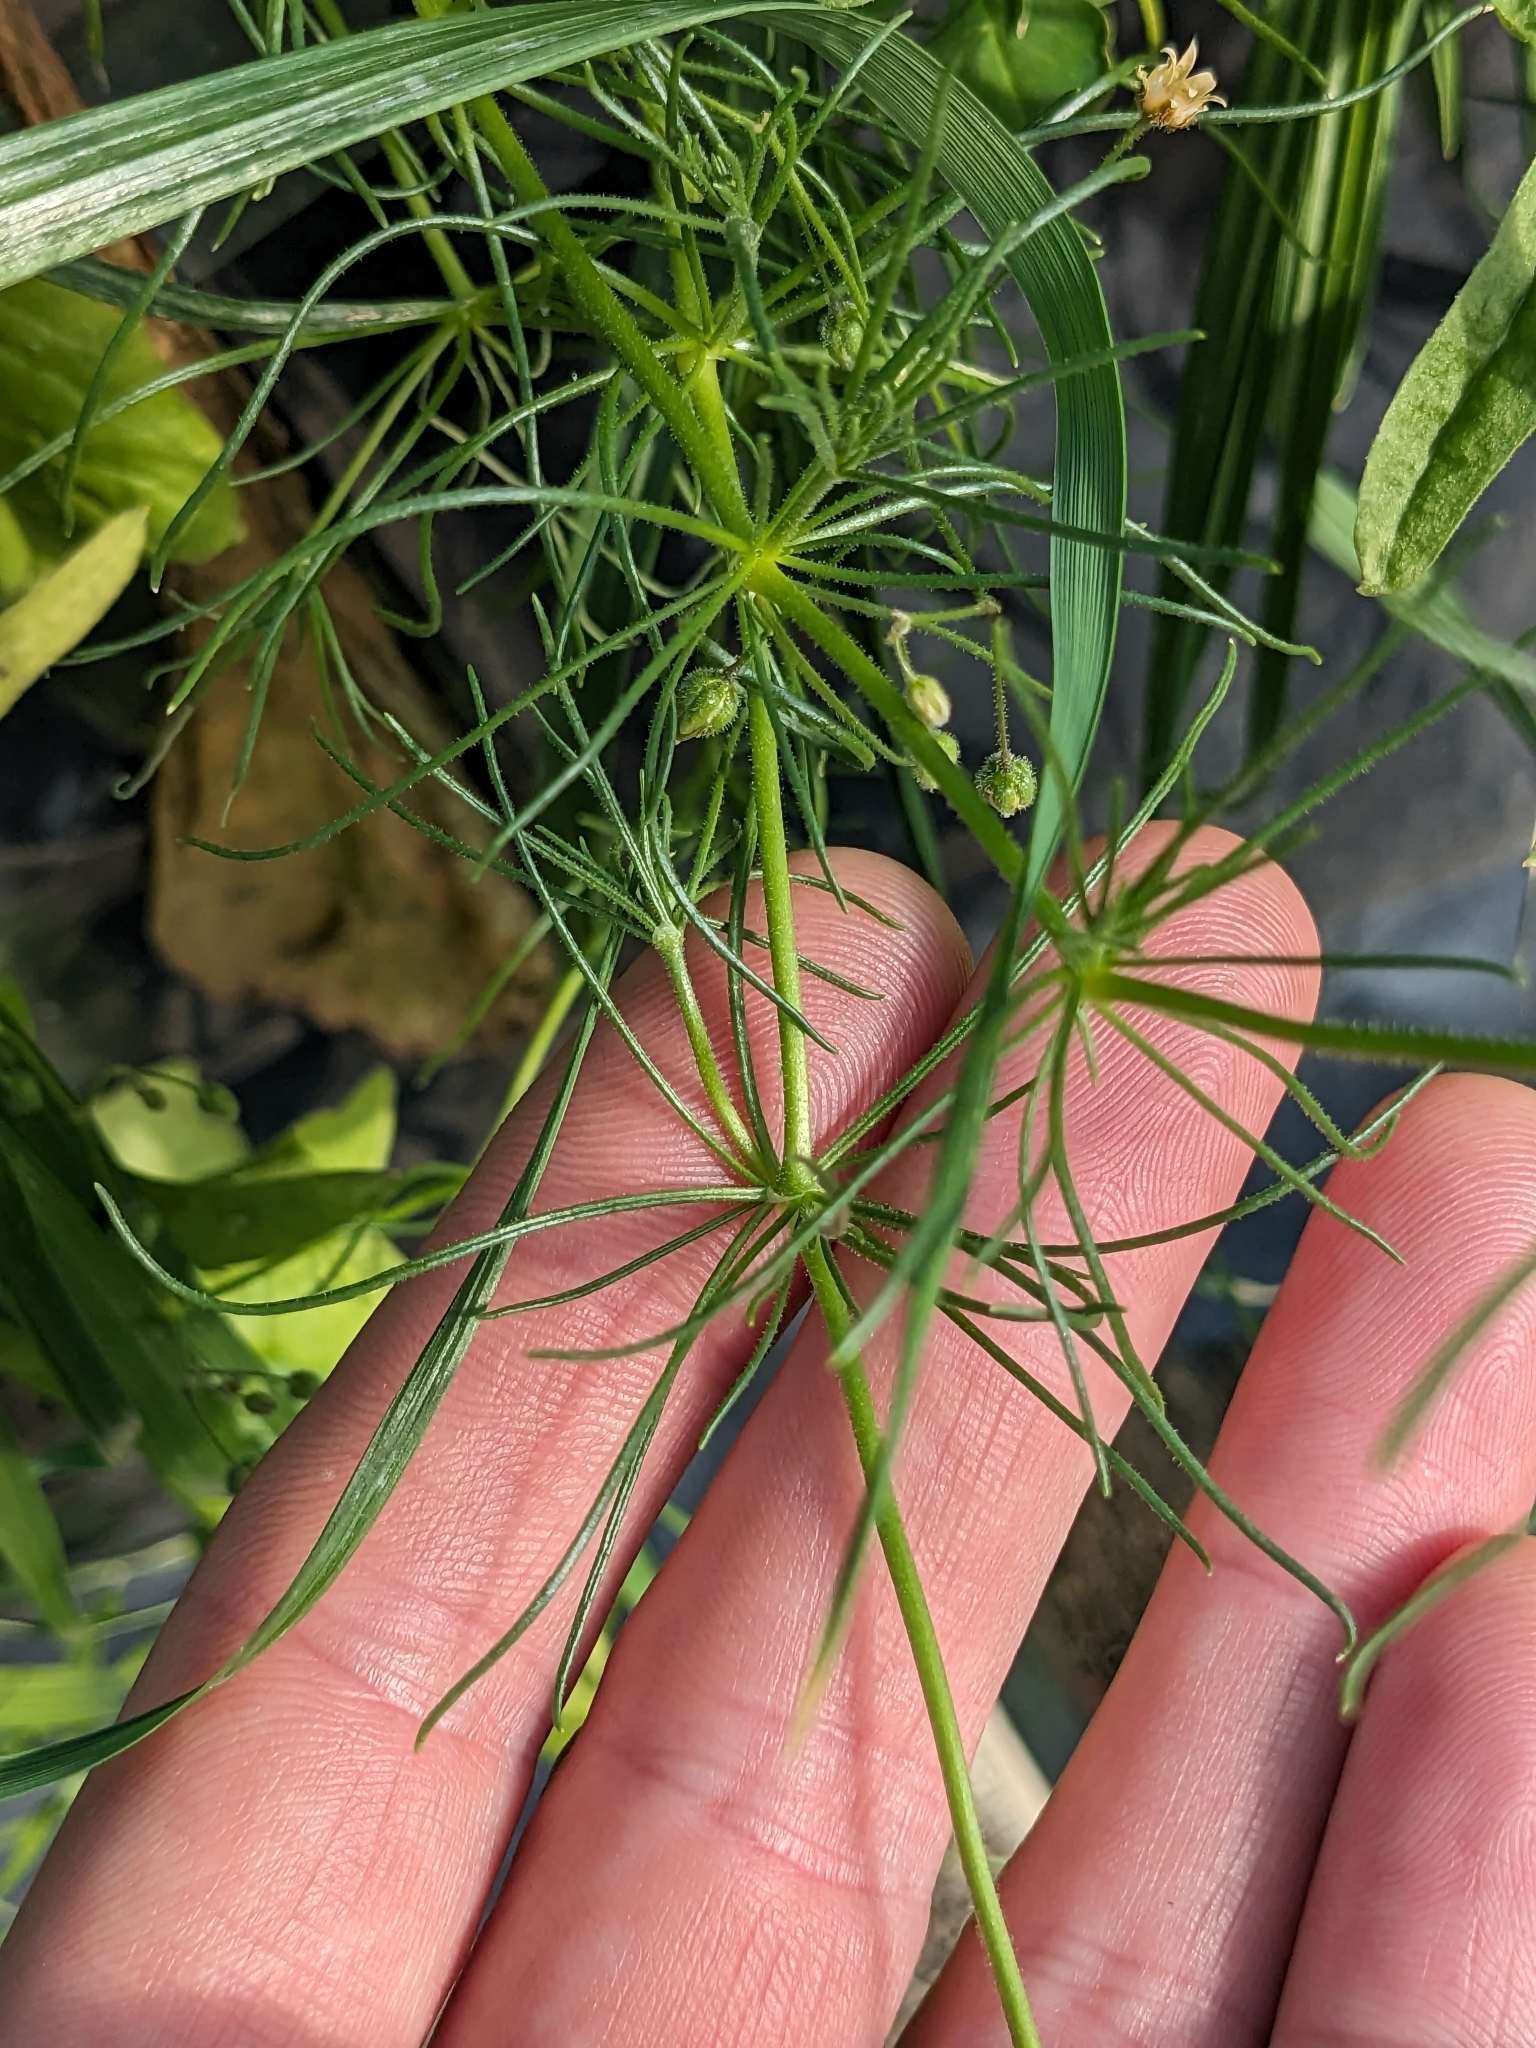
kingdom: Plantae
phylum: Tracheophyta
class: Magnoliopsida
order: Caryophyllales
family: Caryophyllaceae
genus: Spergula
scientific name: Spergula arvensis
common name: Corn spurrey
